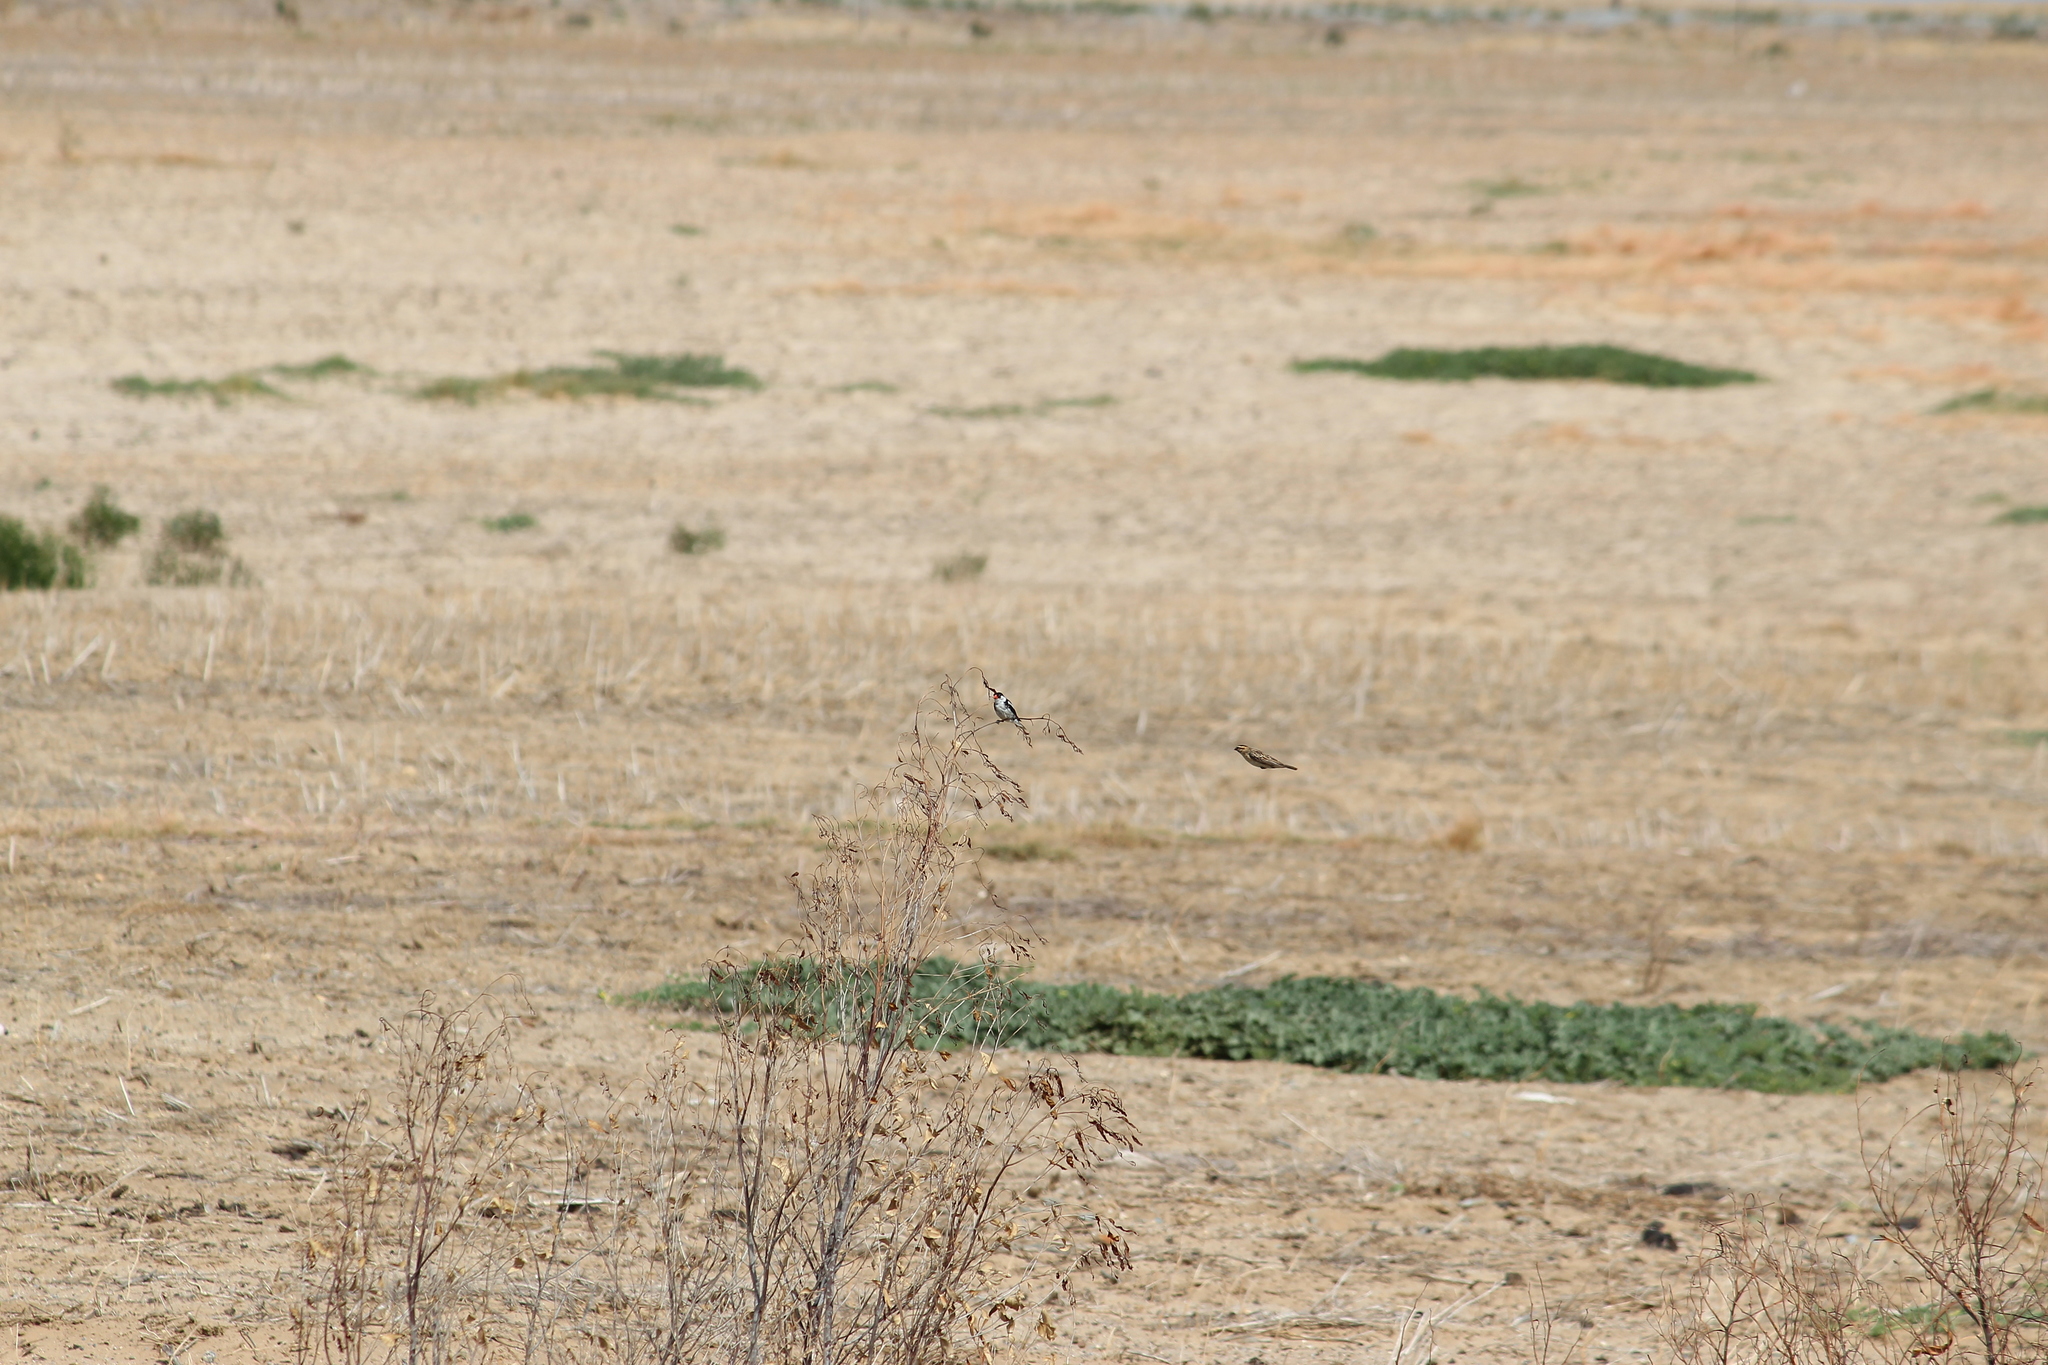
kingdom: Animalia
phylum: Chordata
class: Aves
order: Passeriformes
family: Viduidae
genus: Vidua
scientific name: Vidua macroura
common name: Pin-tailed whydah
